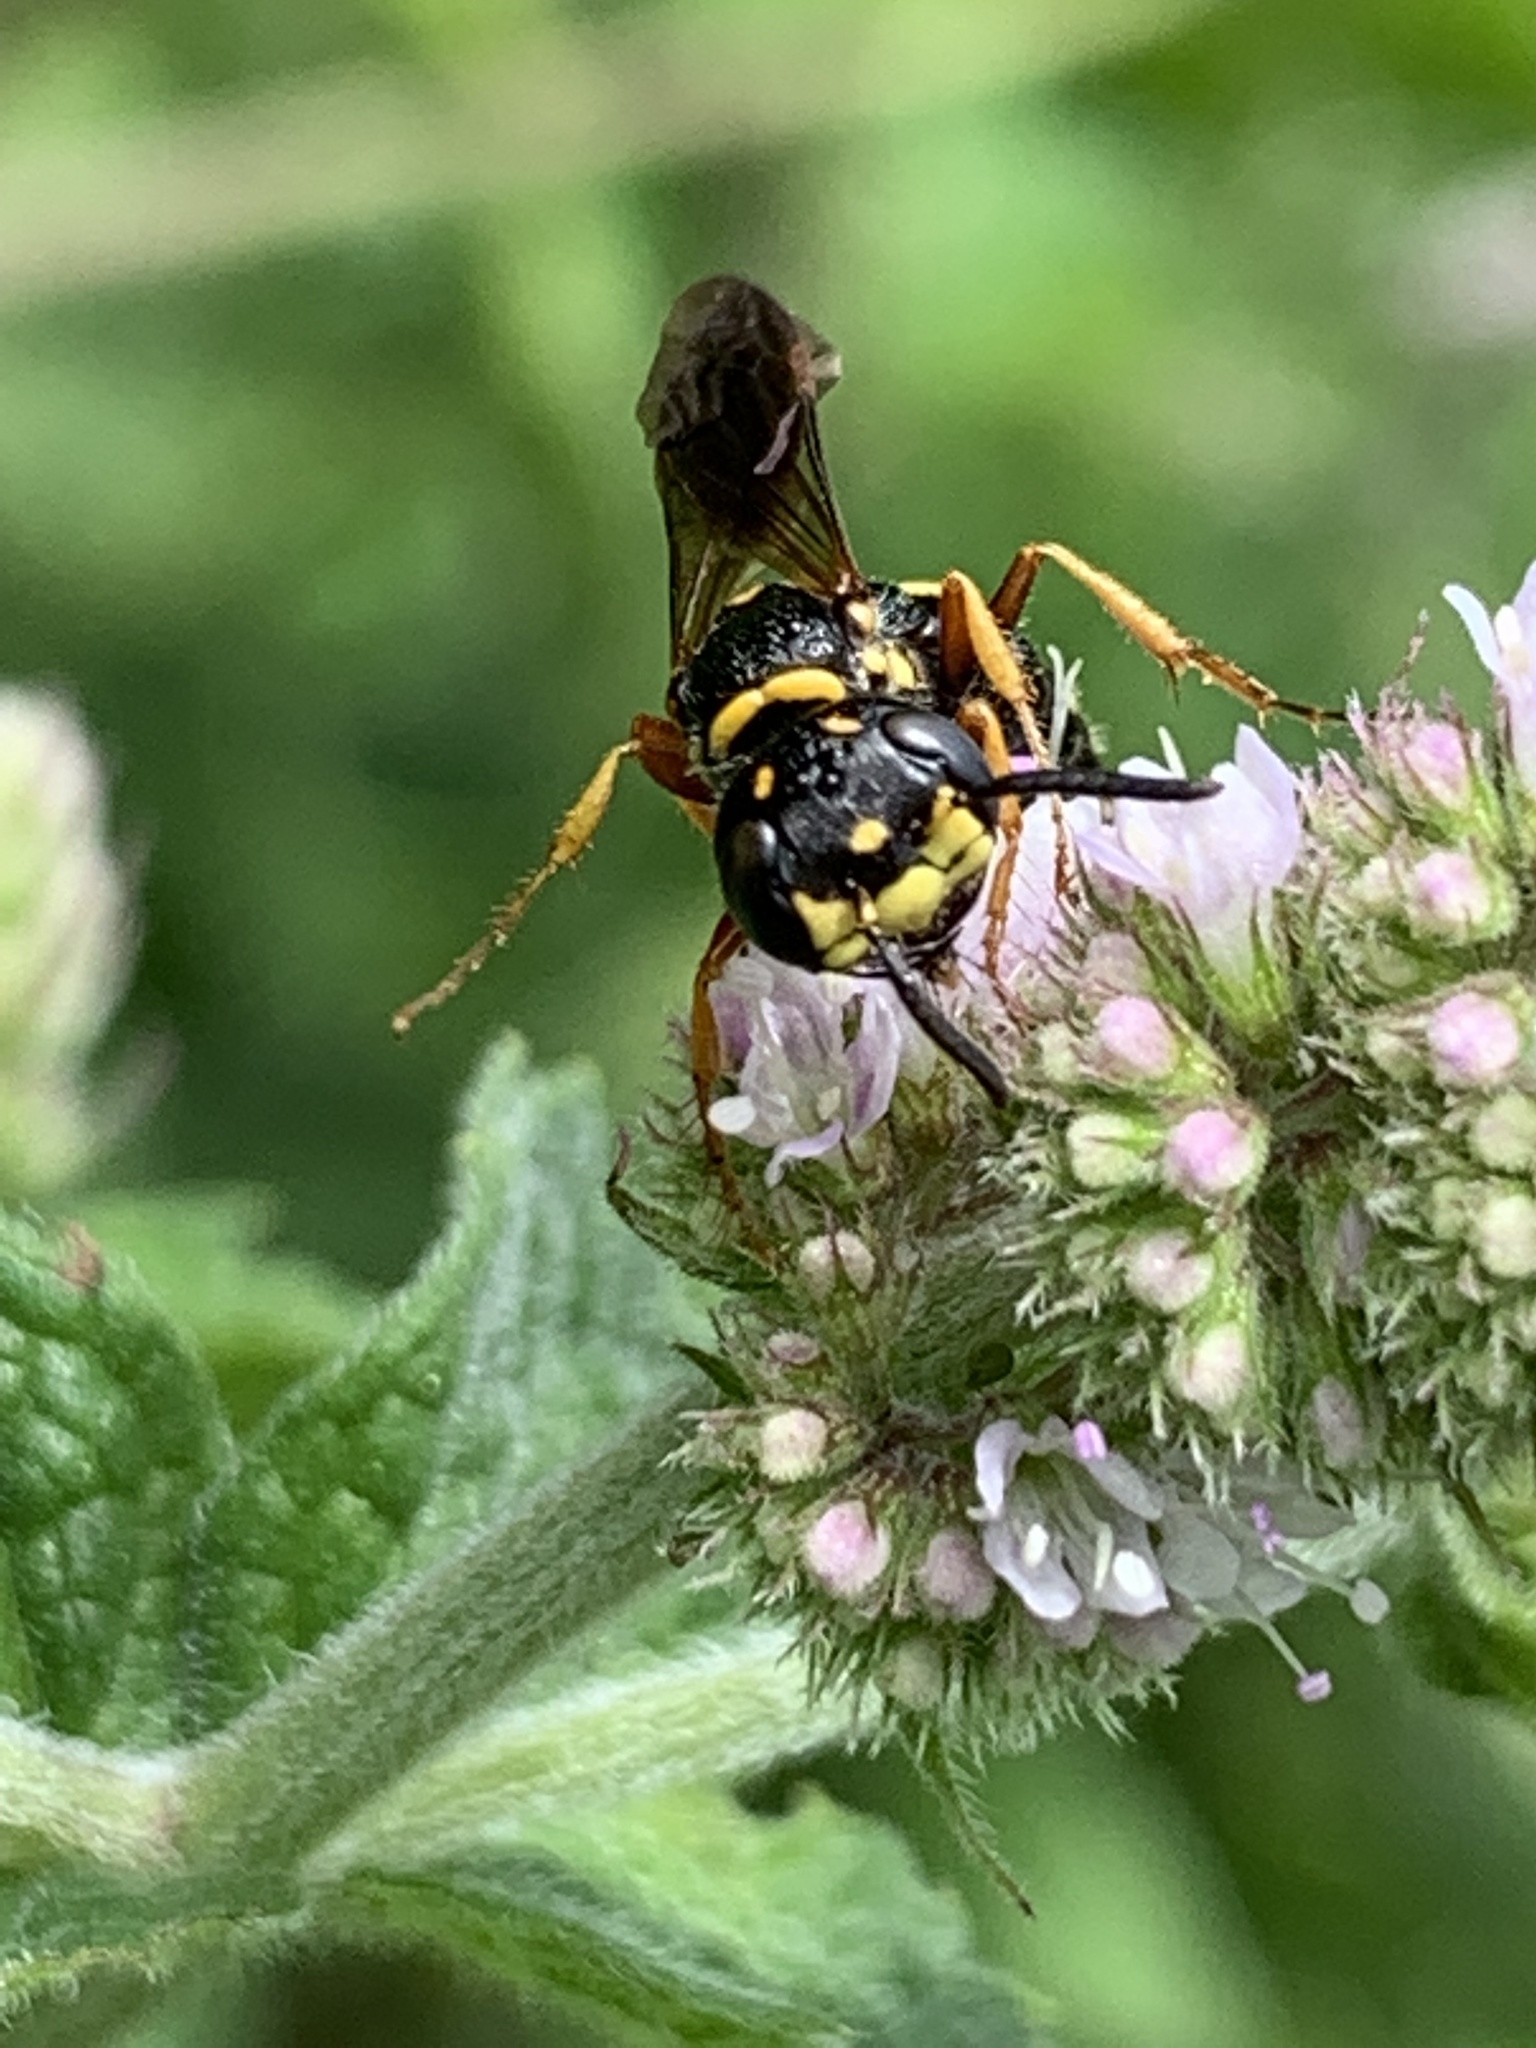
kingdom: Animalia
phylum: Arthropoda
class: Insecta
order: Hymenoptera
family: Crabronidae
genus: Philanthus
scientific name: Philanthus gibbosus
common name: Humped beewolf
